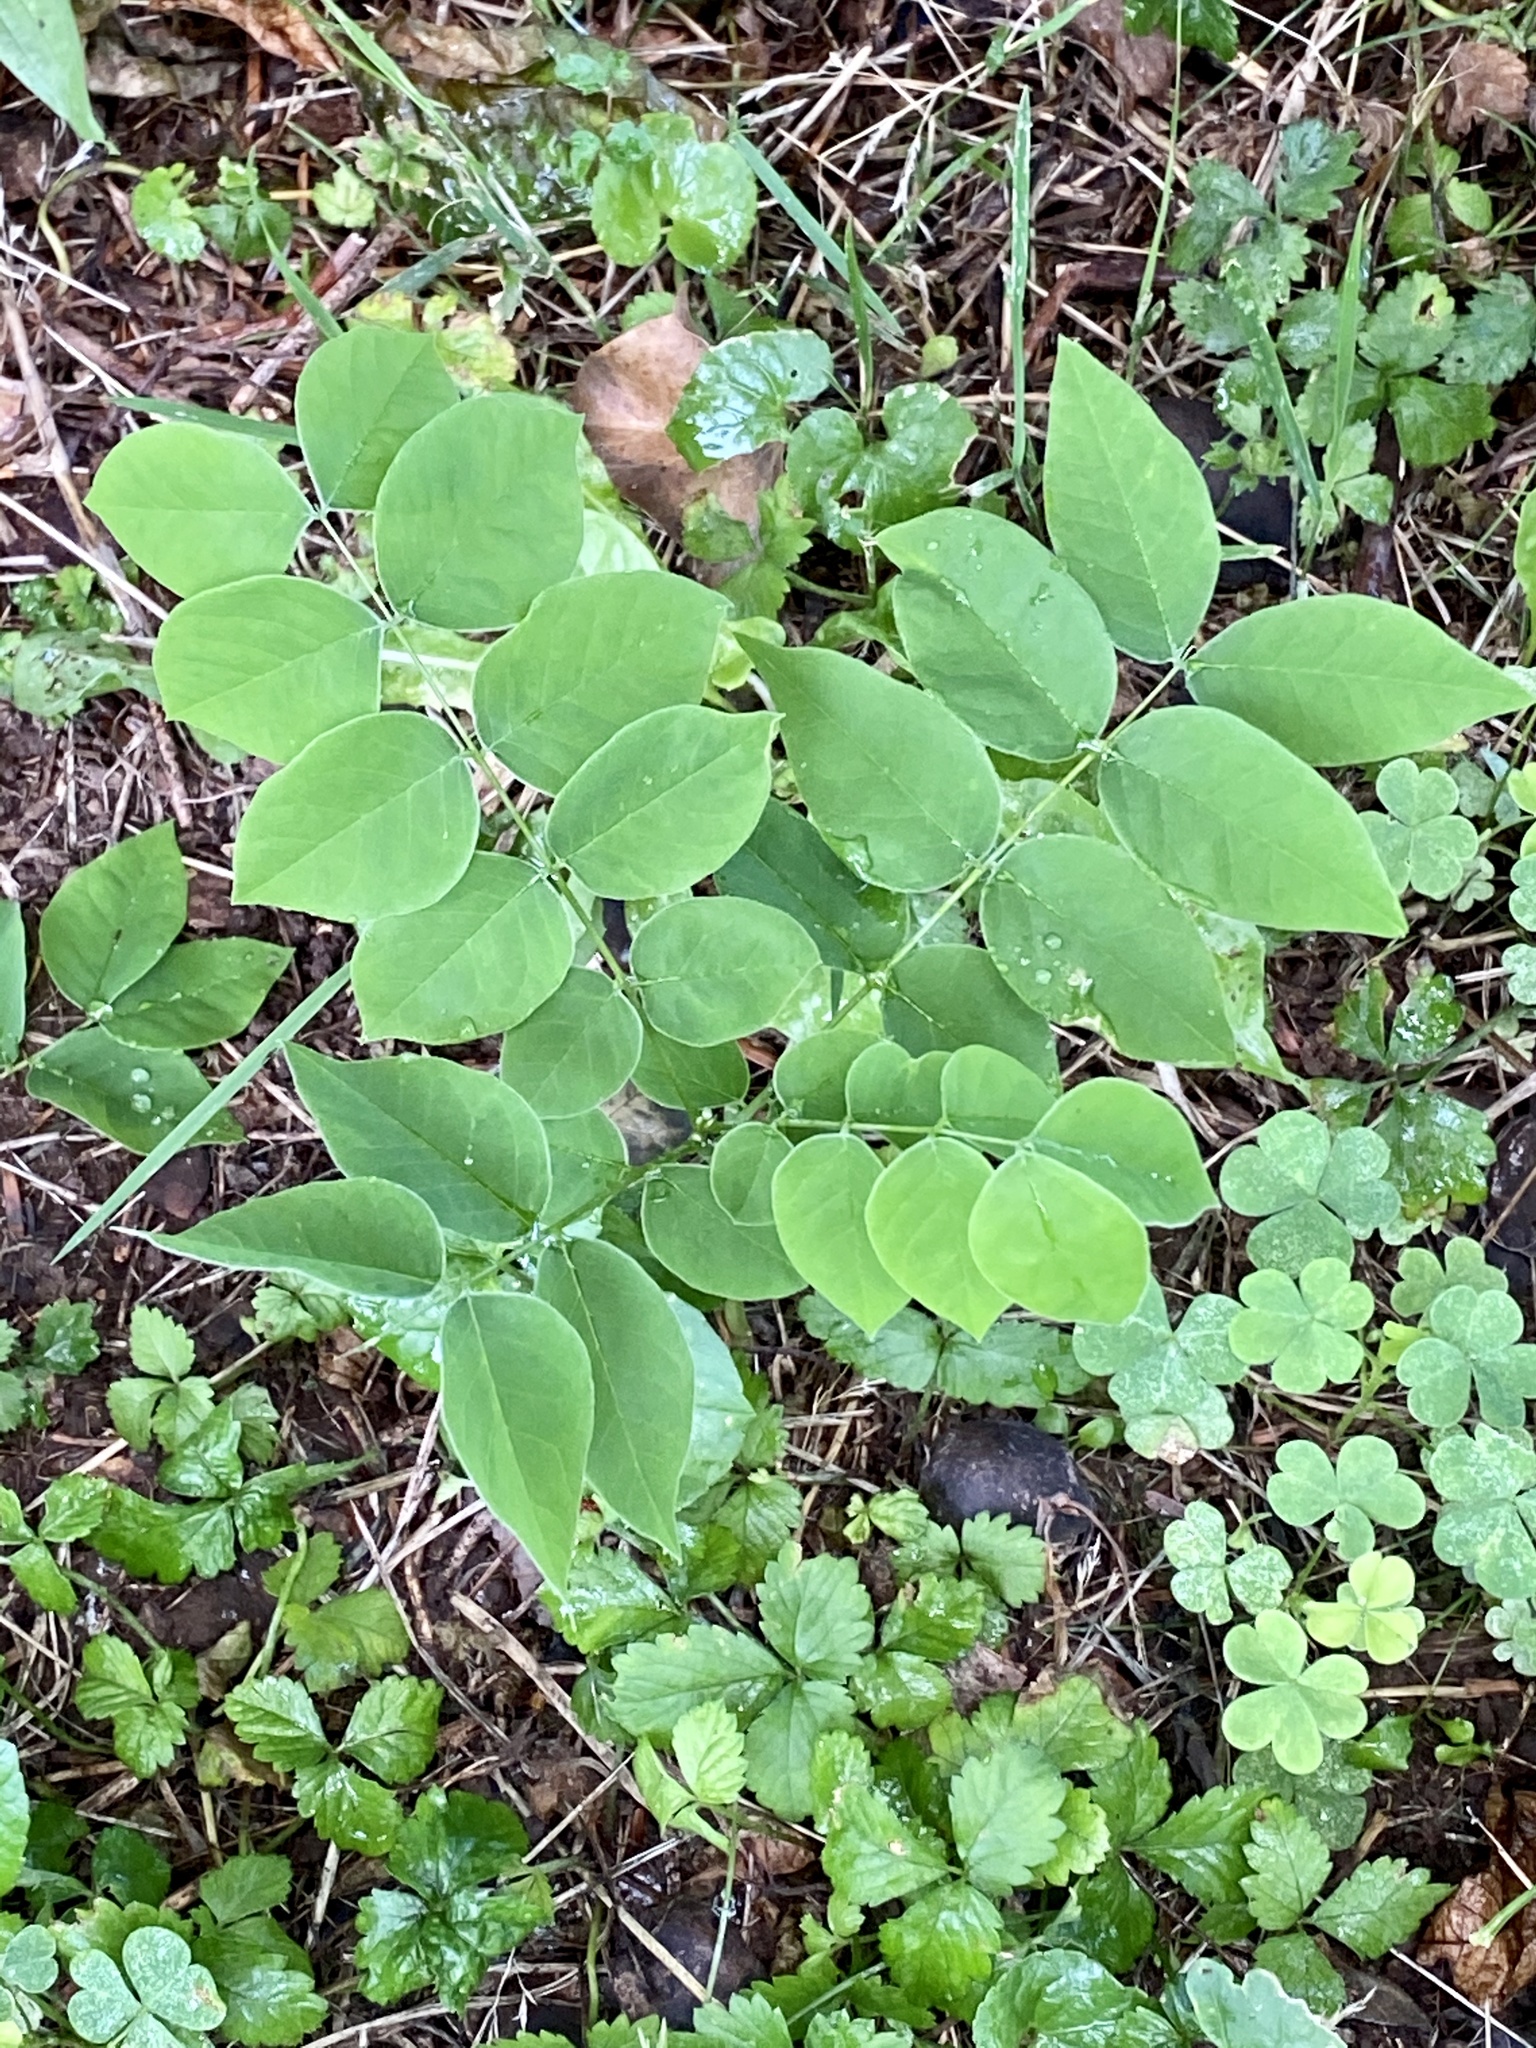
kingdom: Plantae
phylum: Tracheophyta
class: Magnoliopsida
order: Fabales
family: Fabaceae
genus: Gymnocladus
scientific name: Gymnocladus dioicus
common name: Kentucky coffee-tree
